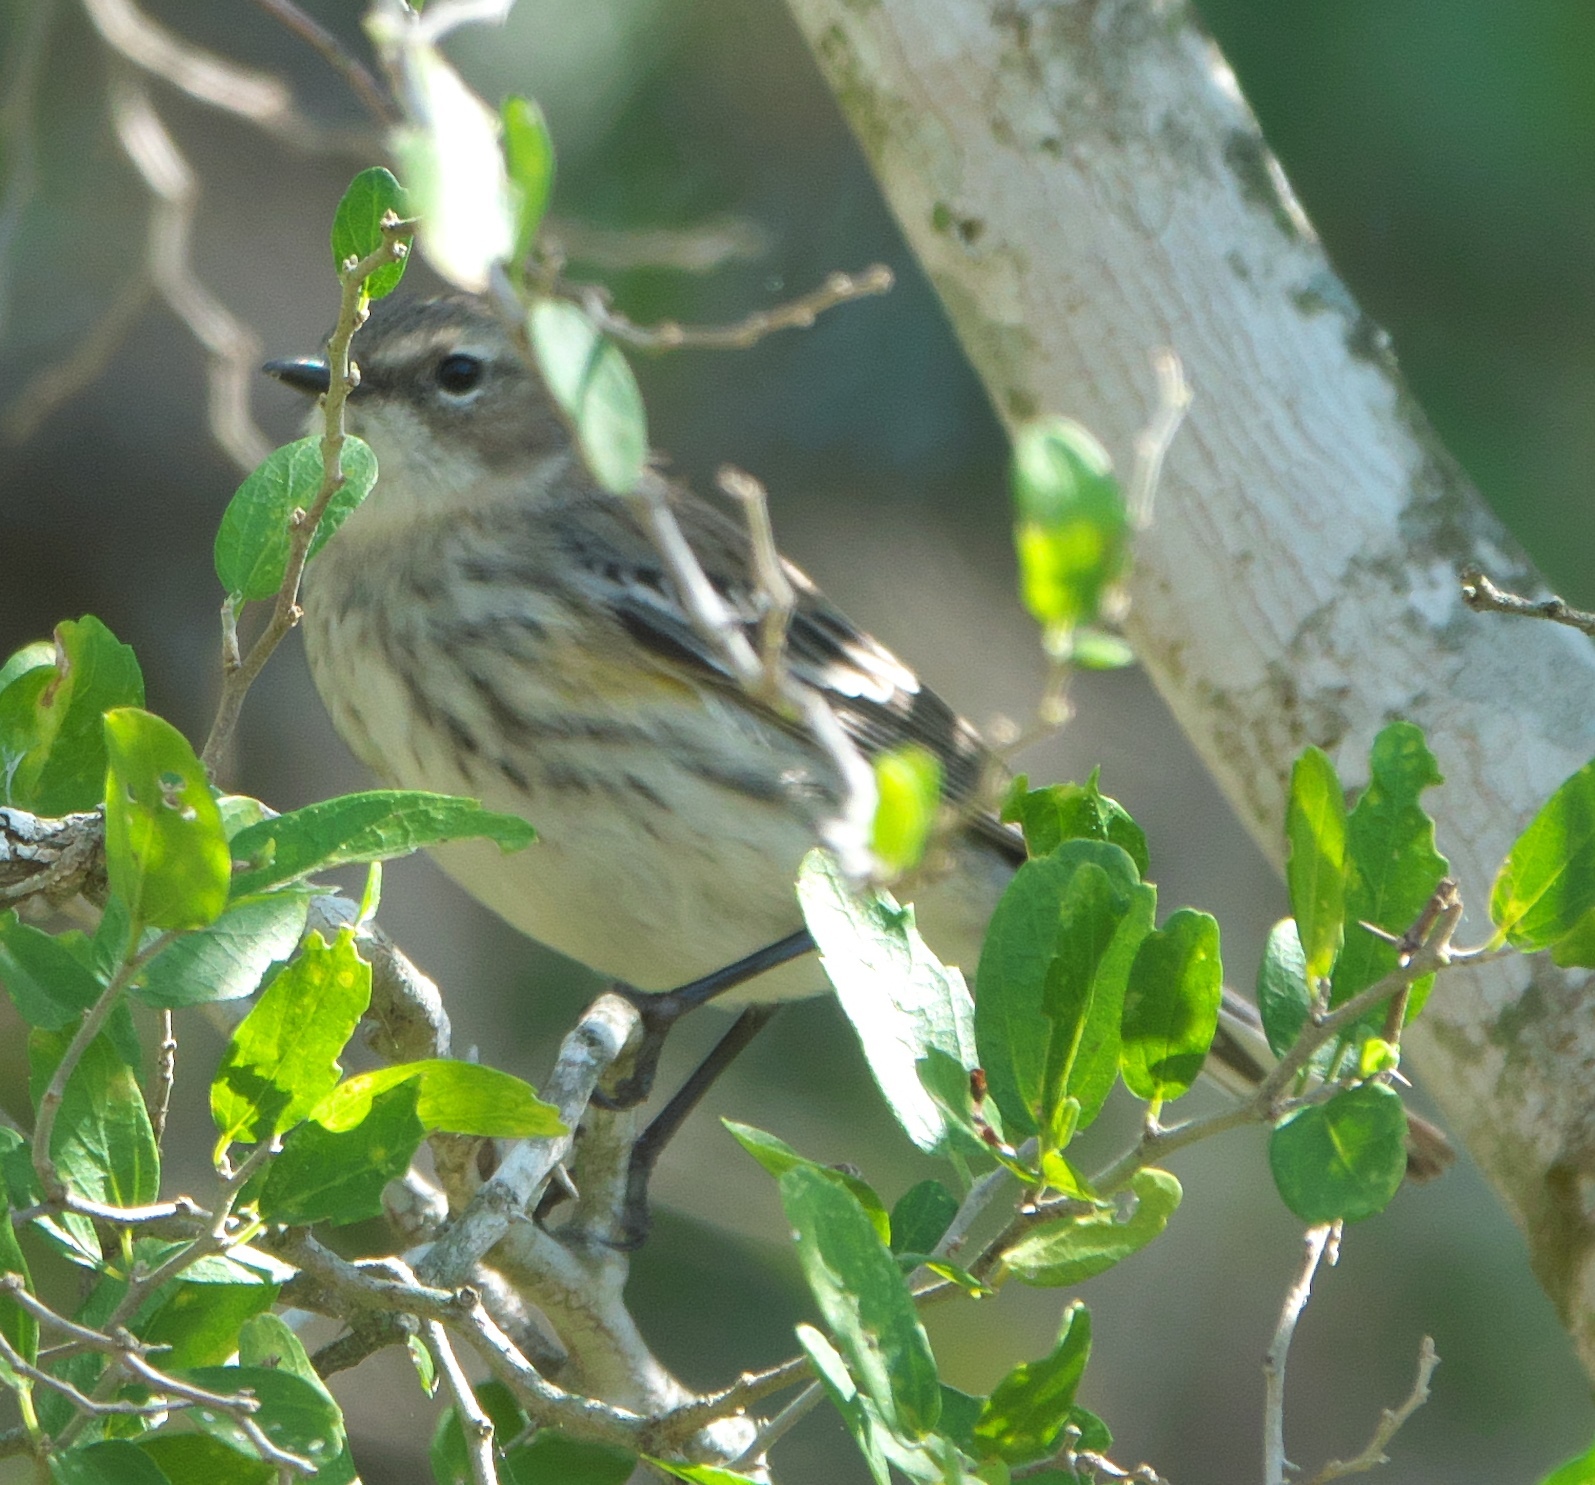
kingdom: Animalia
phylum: Chordata
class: Aves
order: Passeriformes
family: Parulidae
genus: Setophaga
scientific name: Setophaga coronata
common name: Myrtle warbler
